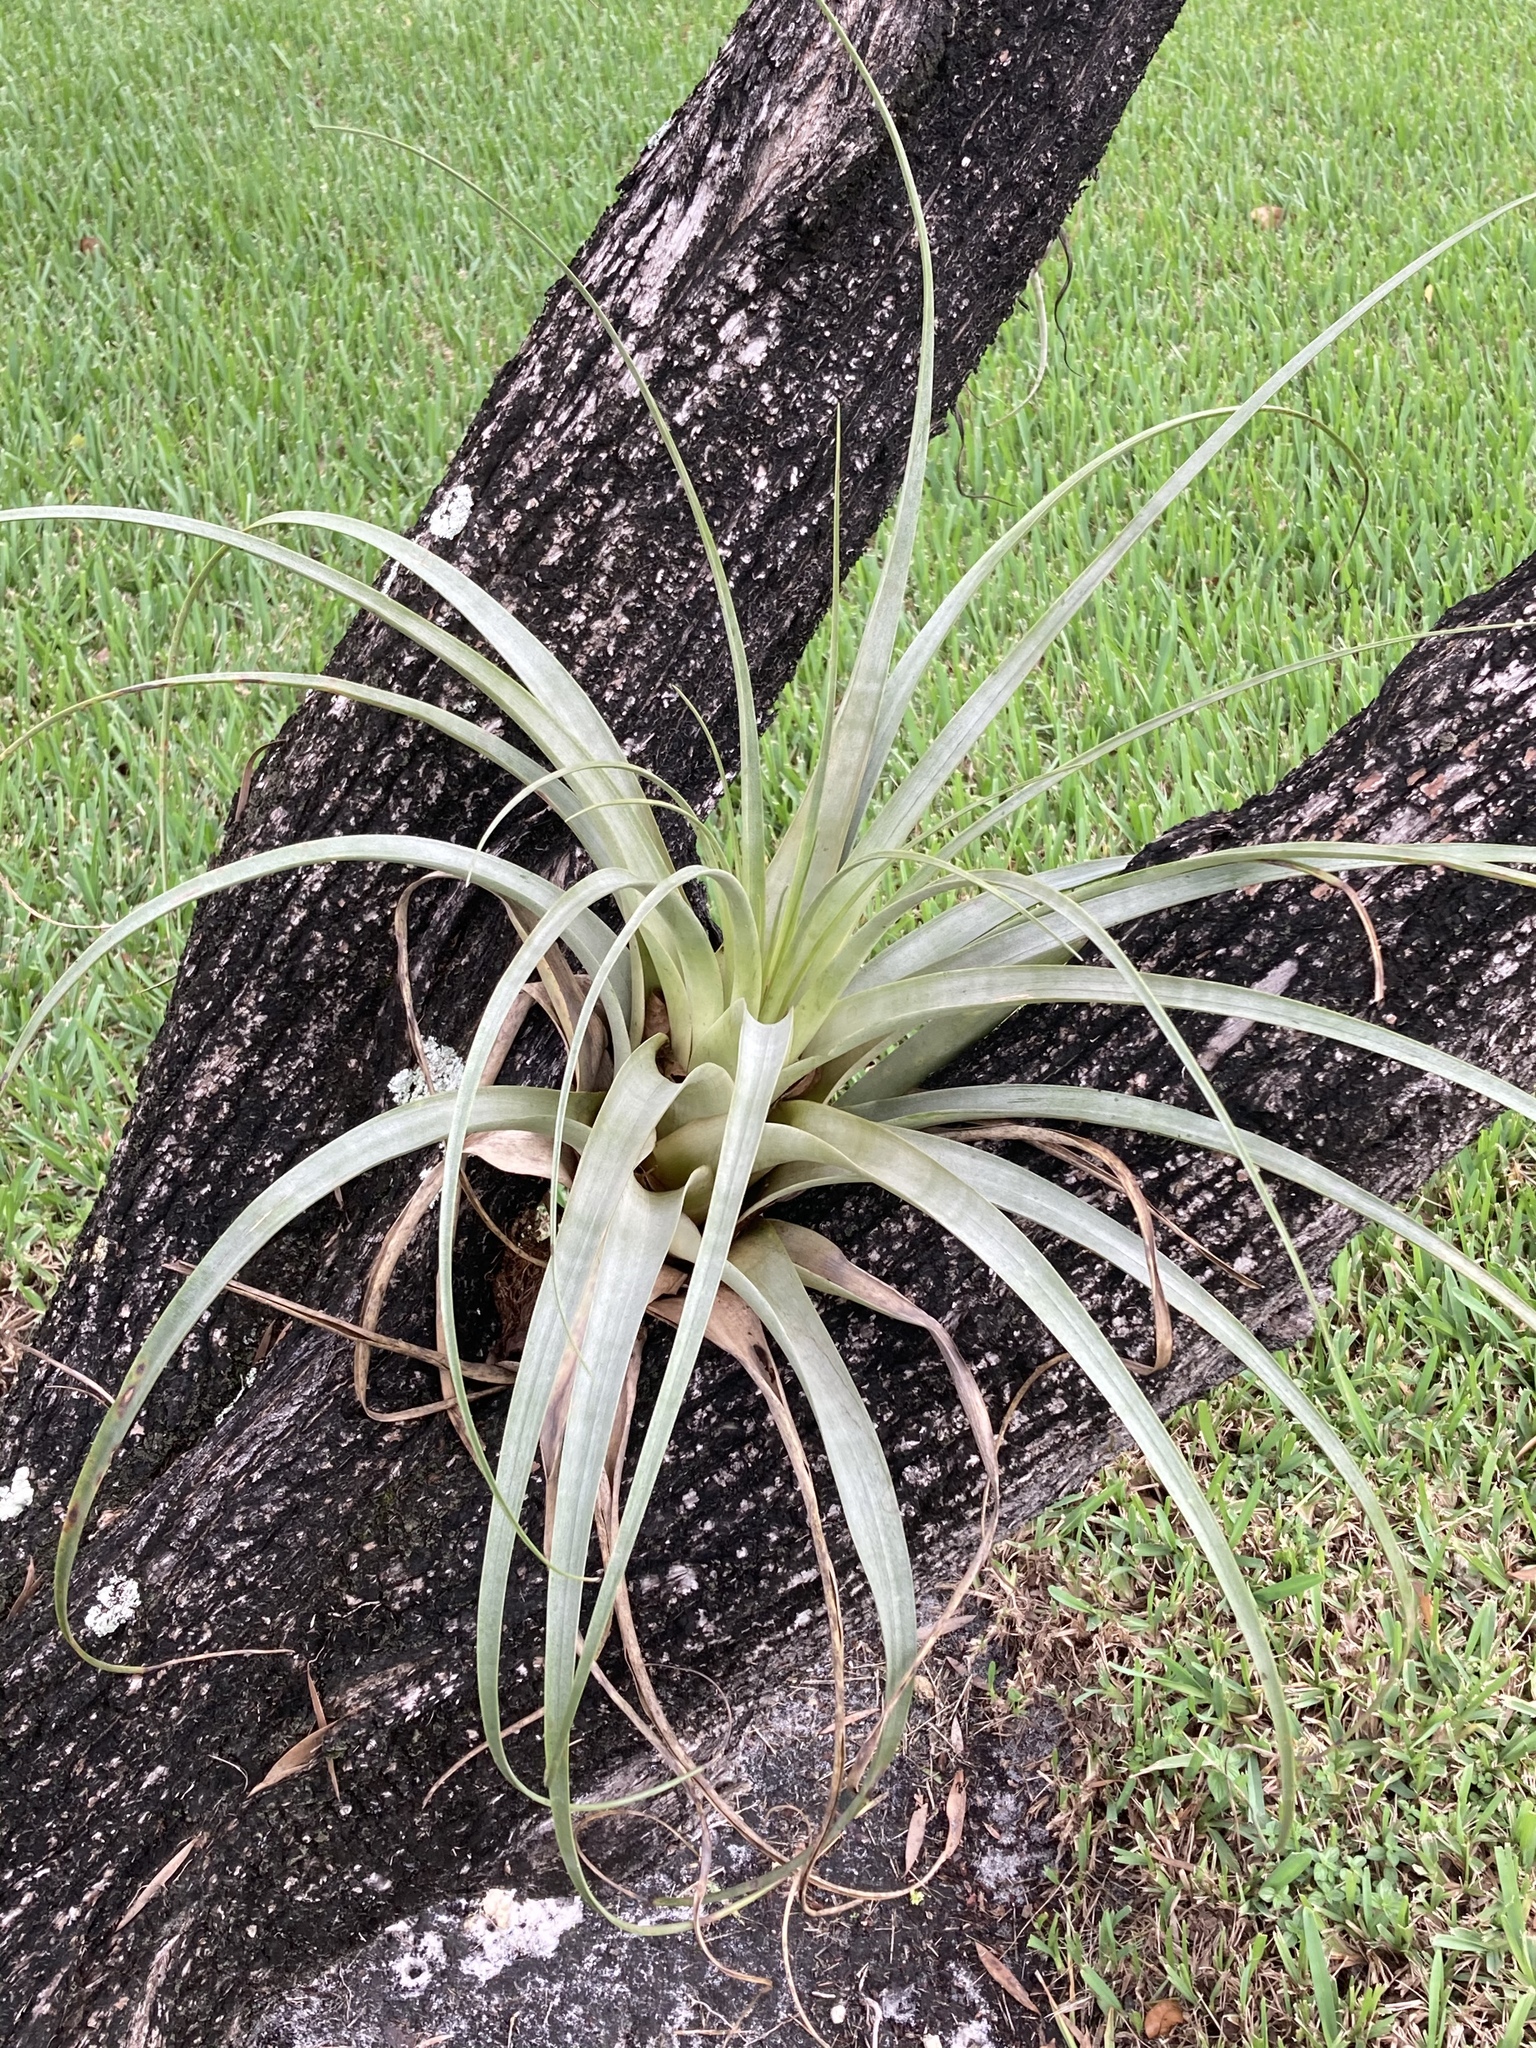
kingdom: Plantae
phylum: Tracheophyta
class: Liliopsida
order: Poales
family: Bromeliaceae
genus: Tillandsia
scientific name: Tillandsia utriculata
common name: Wild pine
